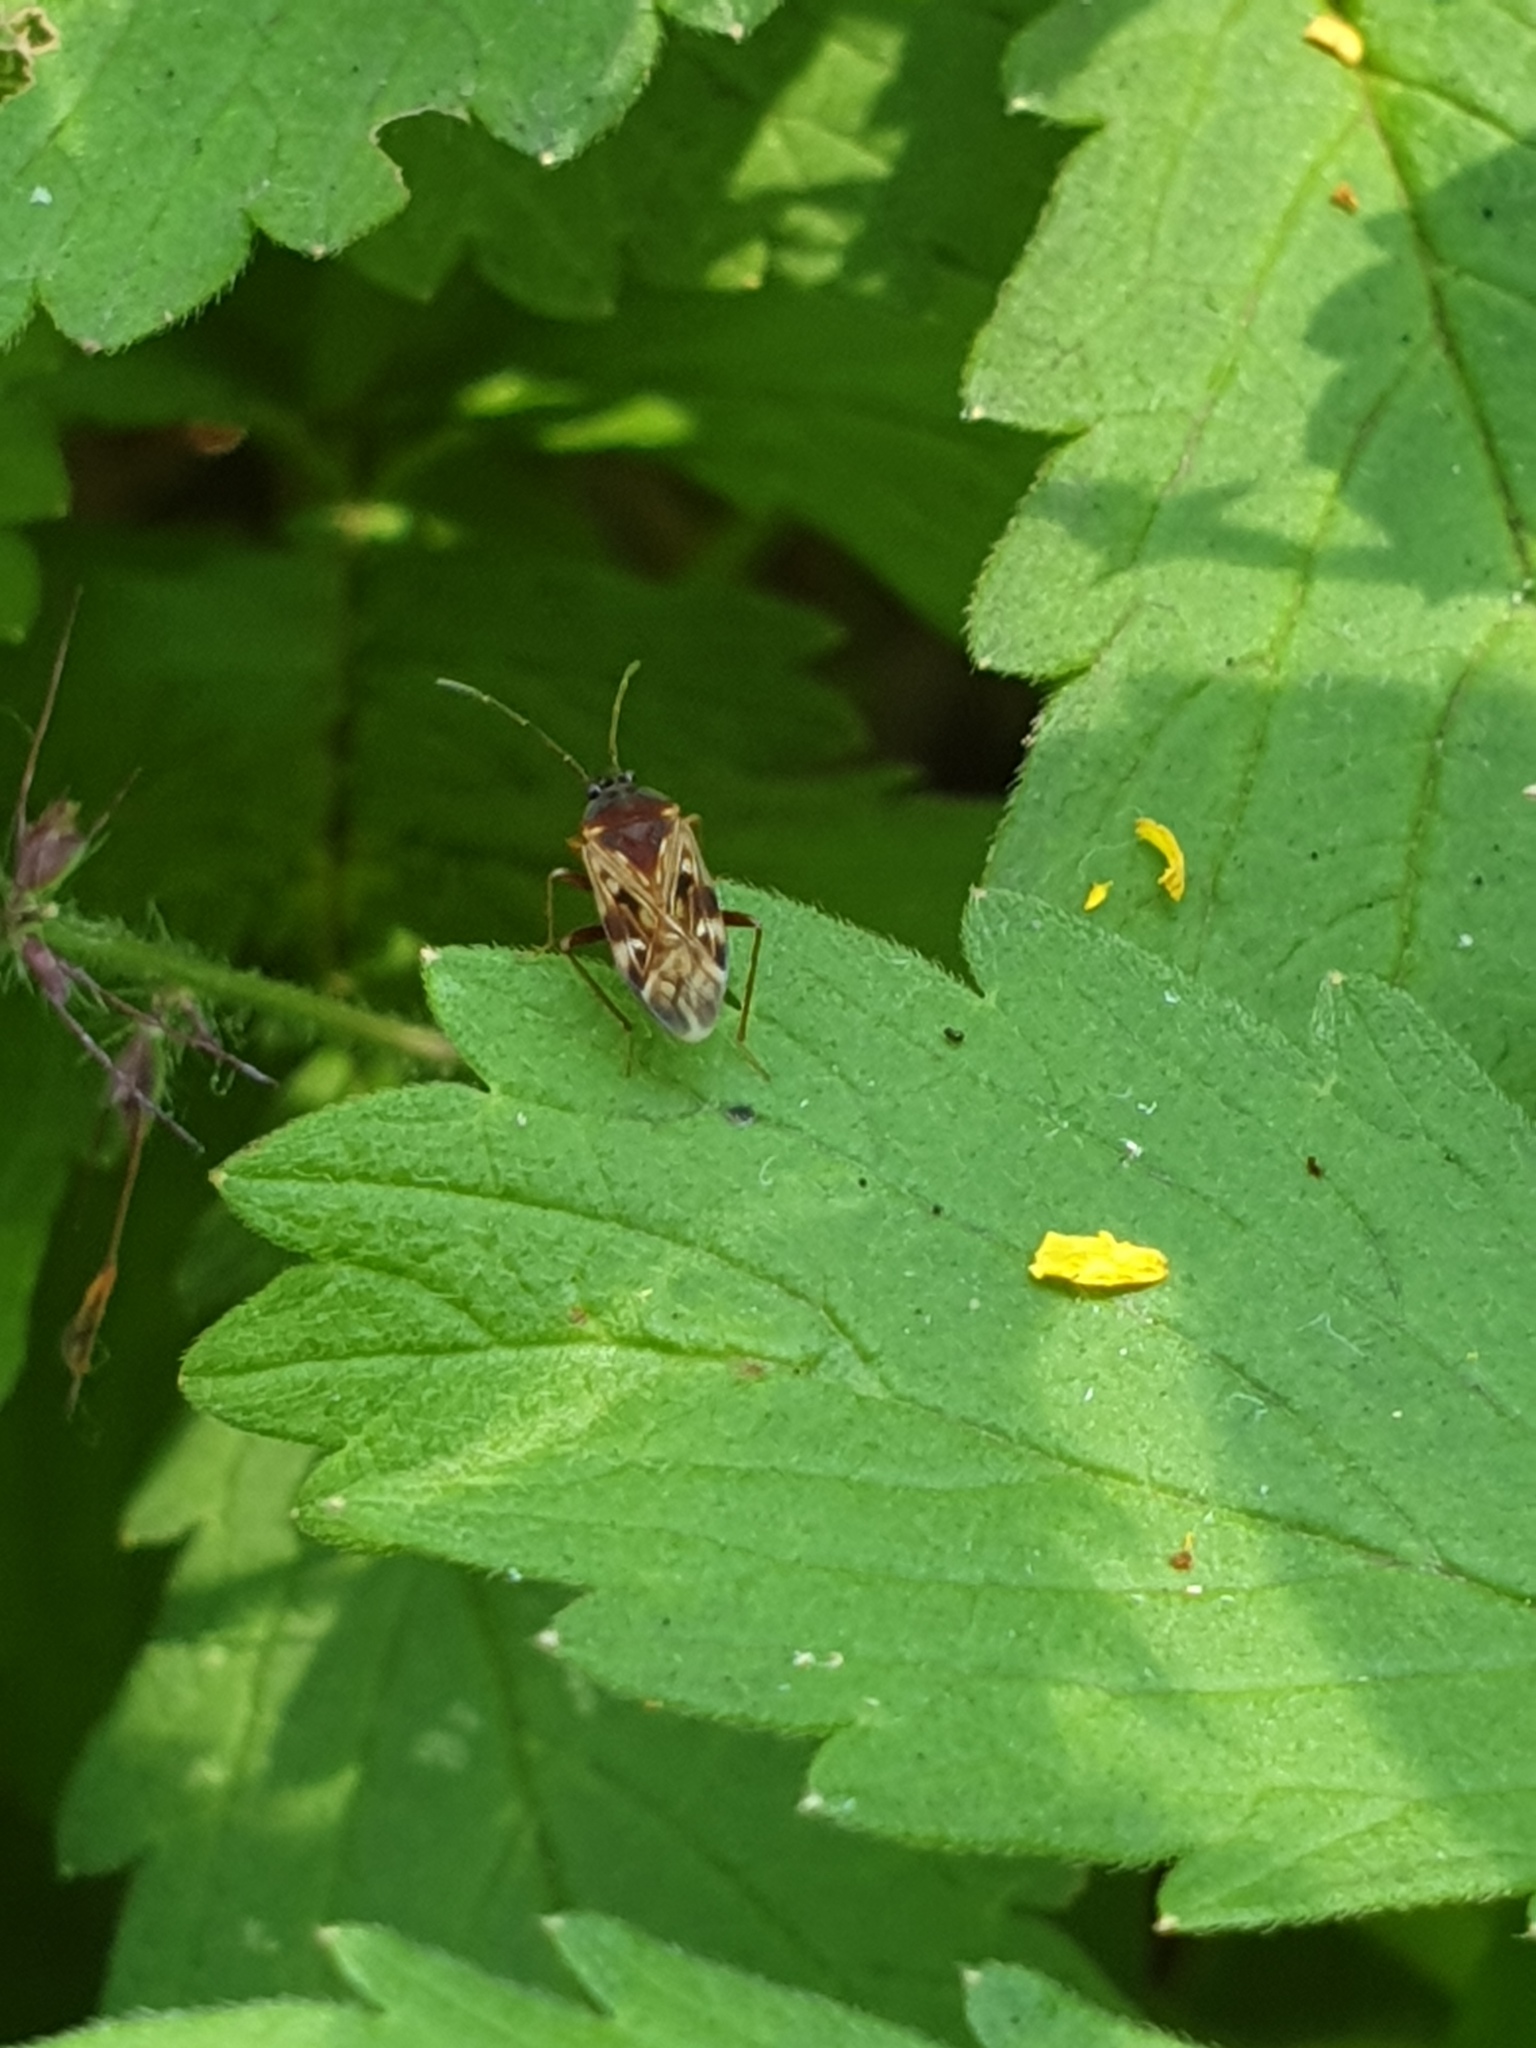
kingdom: Animalia
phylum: Arthropoda
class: Insecta
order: Hemiptera
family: Rhyparochromidae
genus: Neolethaeus
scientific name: Neolethaeus dallasi
